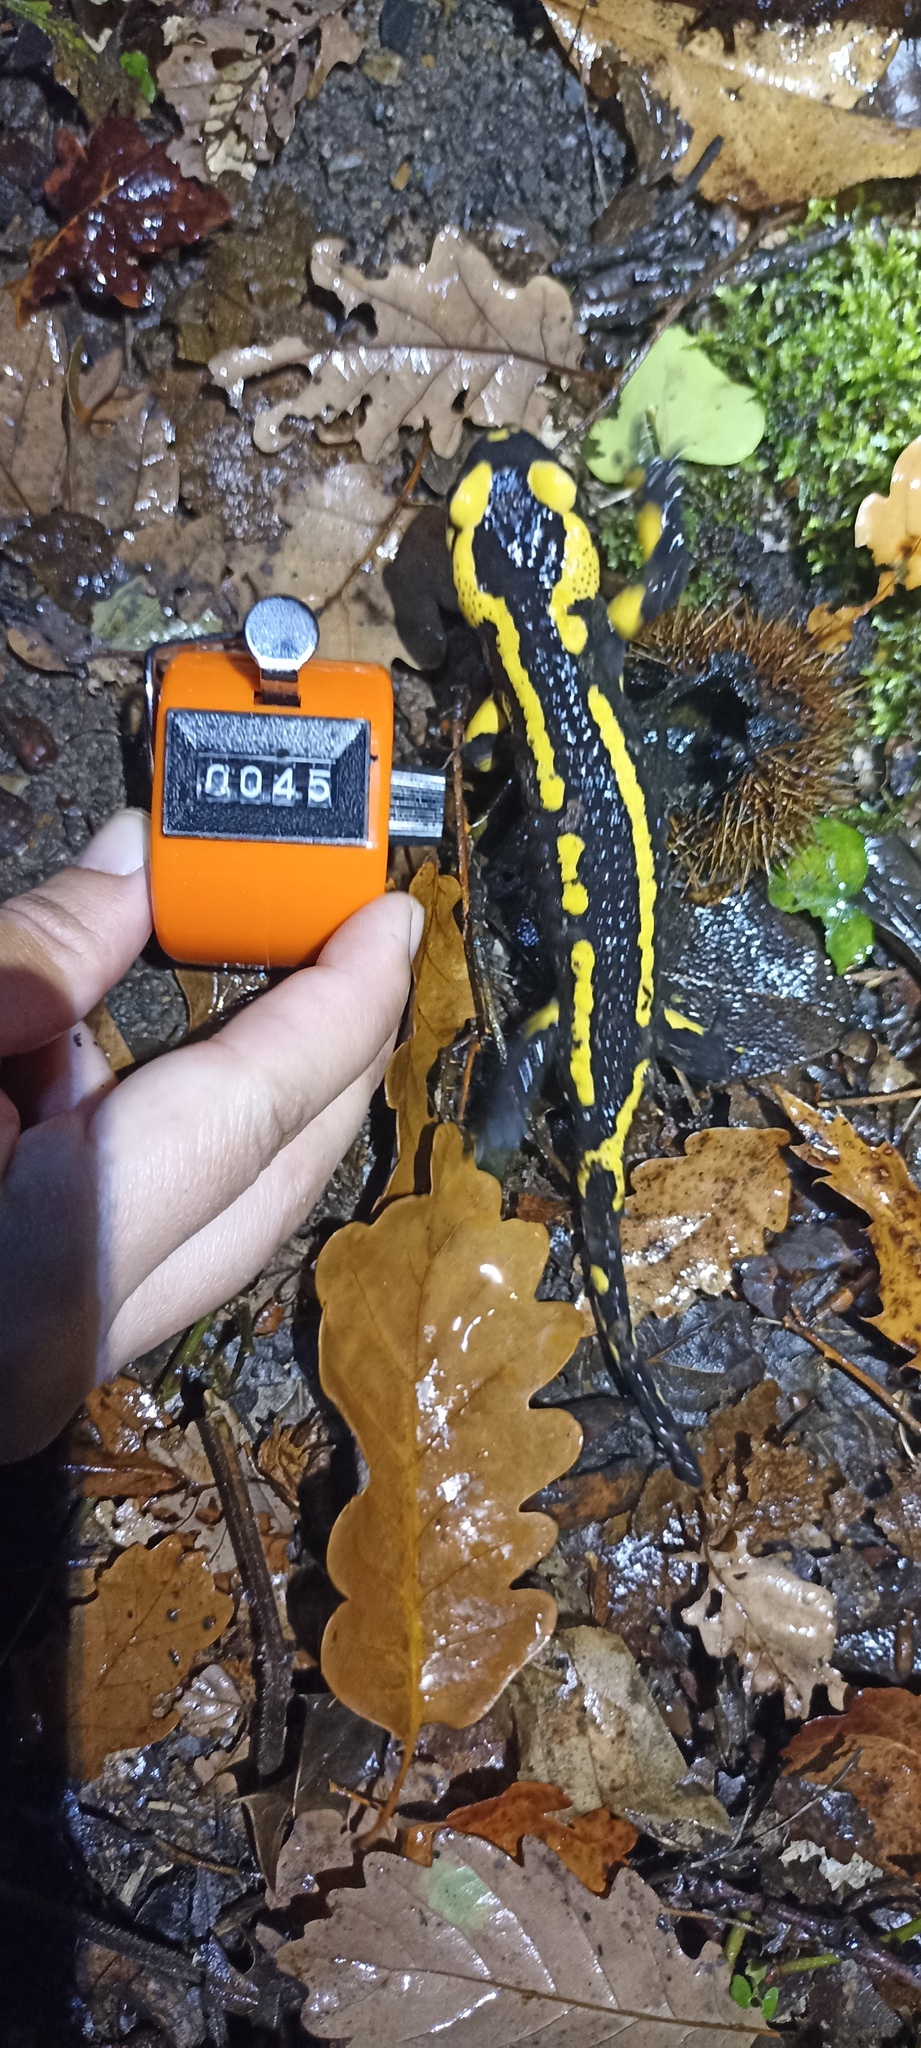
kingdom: Animalia
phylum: Chordata
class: Amphibia
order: Caudata
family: Salamandridae
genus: Salamandra
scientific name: Salamandra salamandra
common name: Fire salamander
